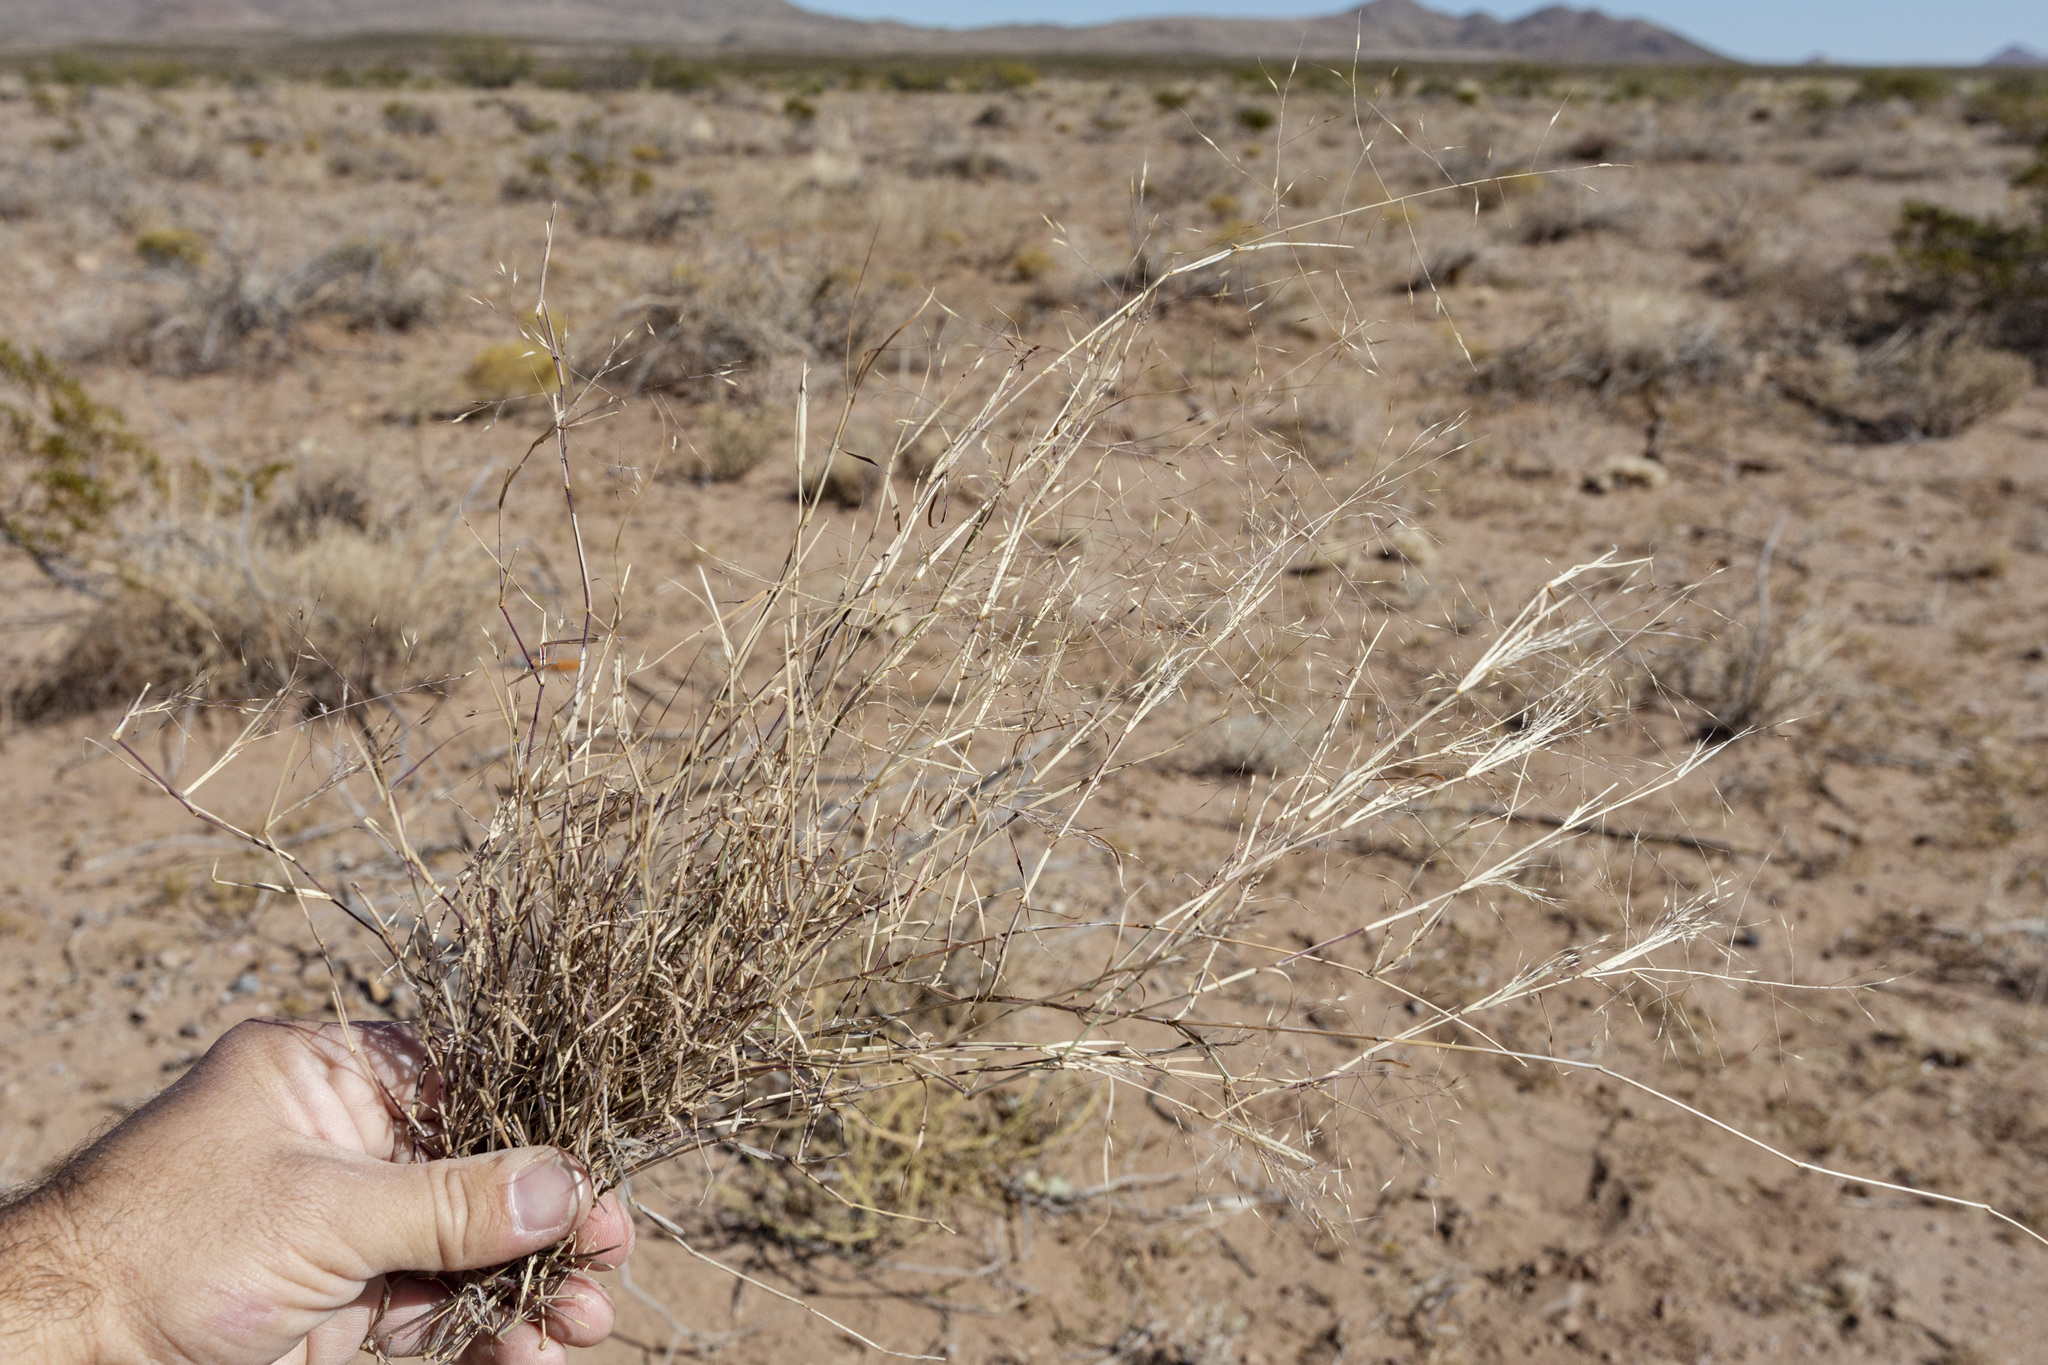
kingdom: Plantae
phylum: Tracheophyta
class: Liliopsida
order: Poales
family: Poaceae
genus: Muhlenbergia
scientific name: Muhlenbergia porteri
